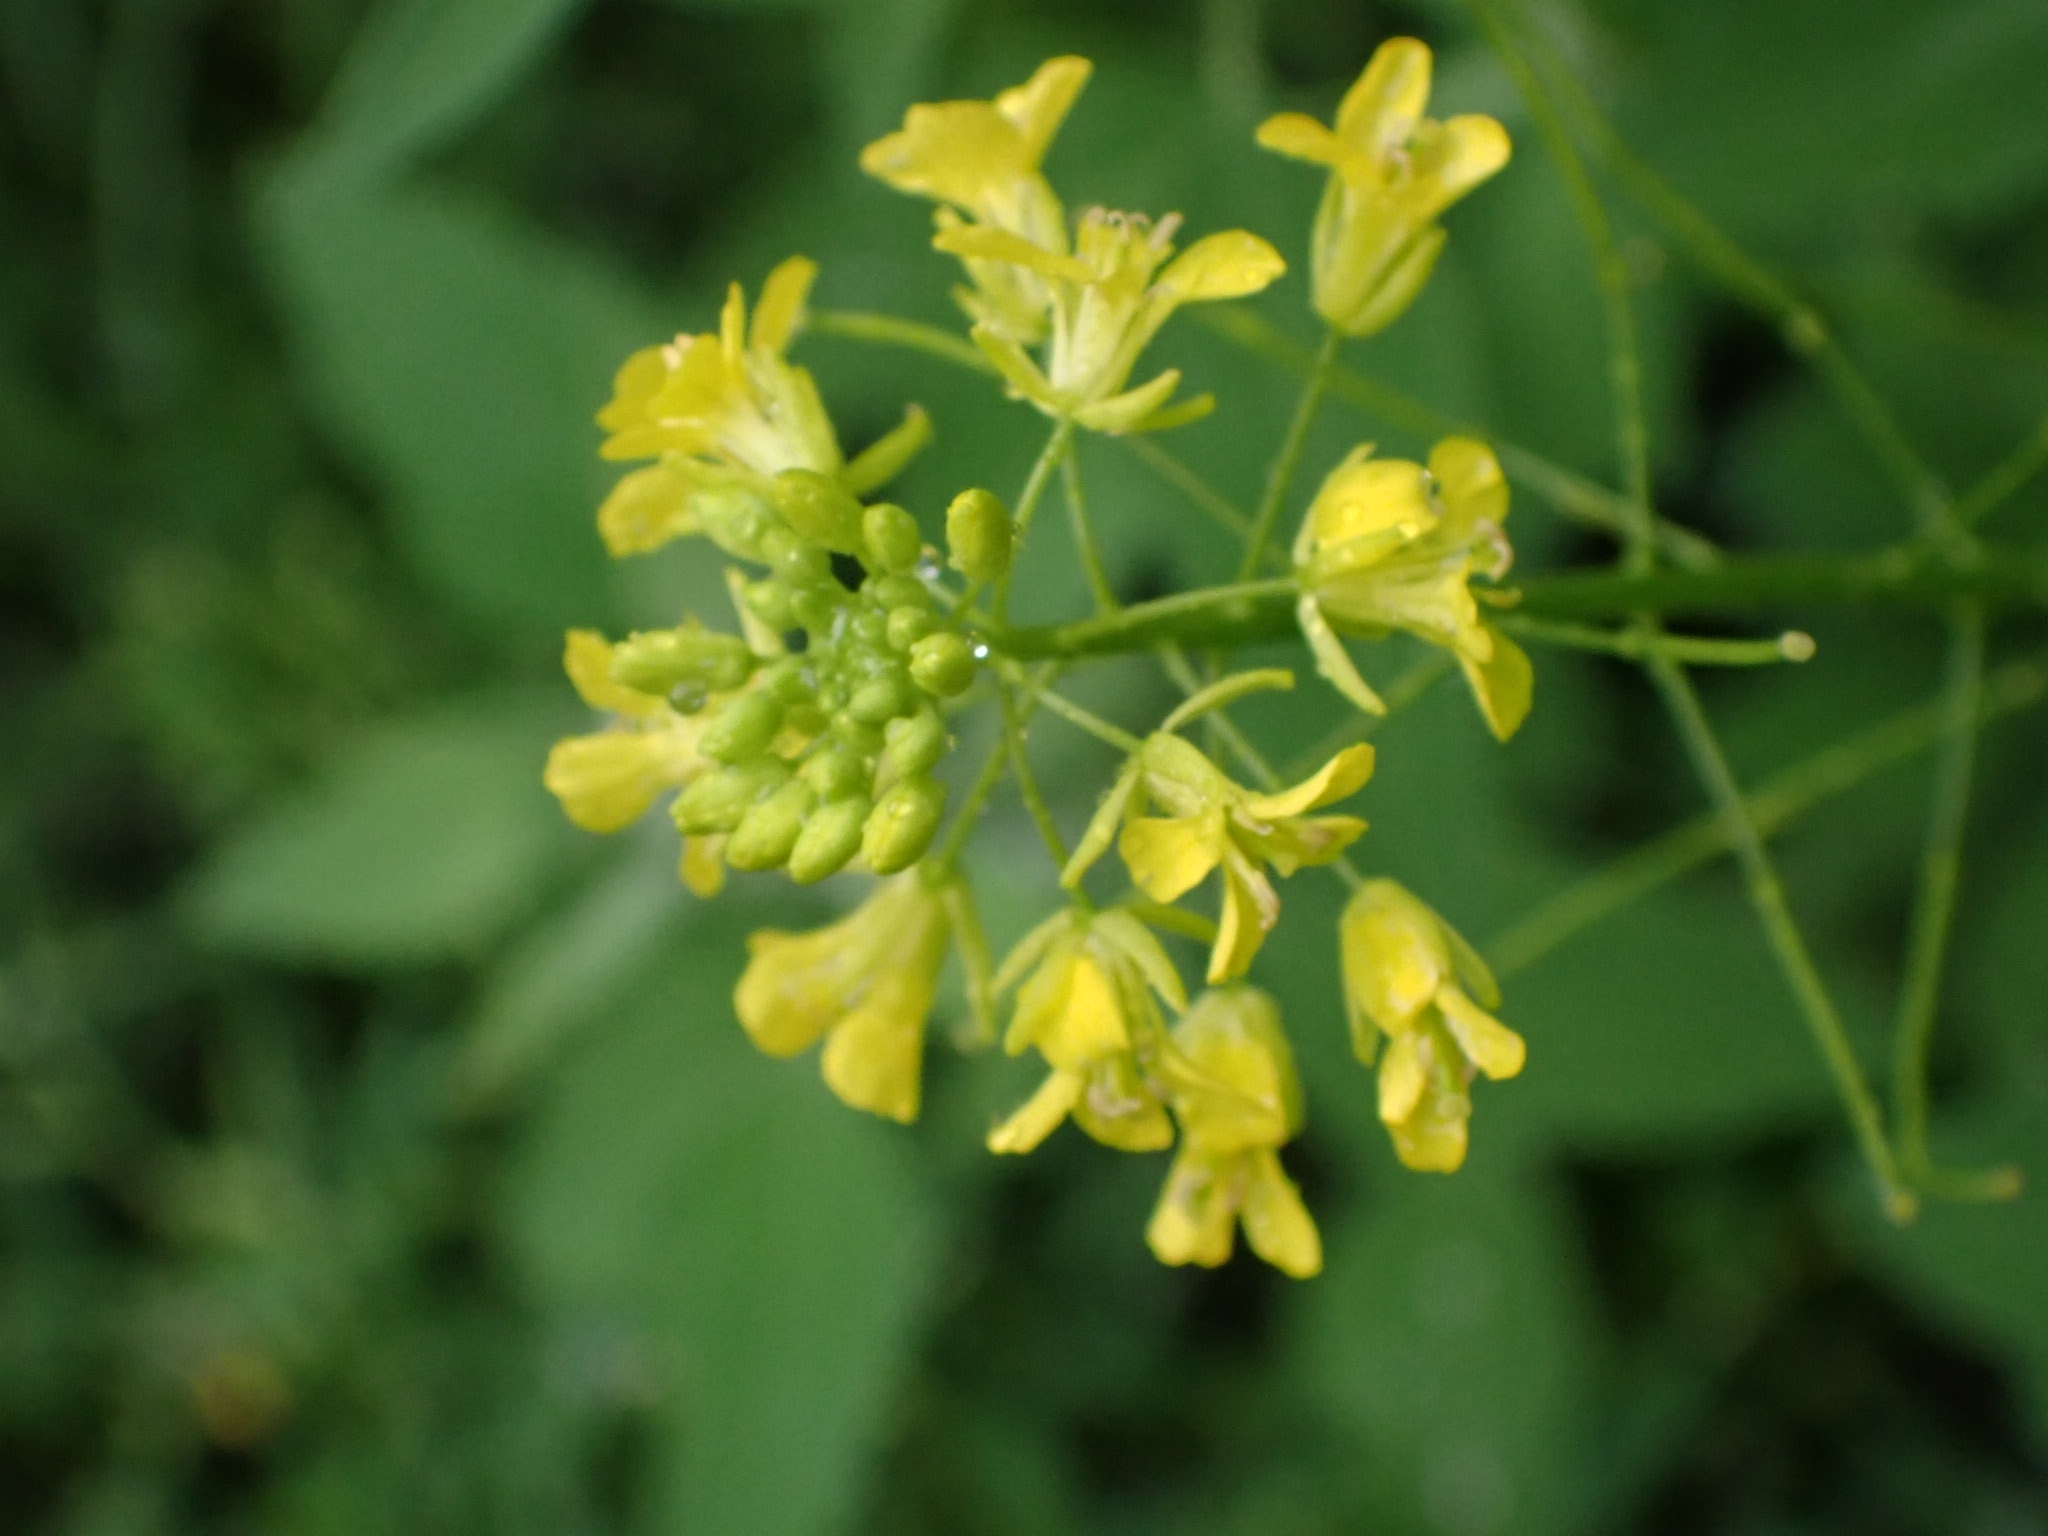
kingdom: Plantae
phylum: Tracheophyta
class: Magnoliopsida
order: Brassicales
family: Brassicaceae
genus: Sisymbrium
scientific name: Sisymbrium loeselii
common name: False london-rocket
